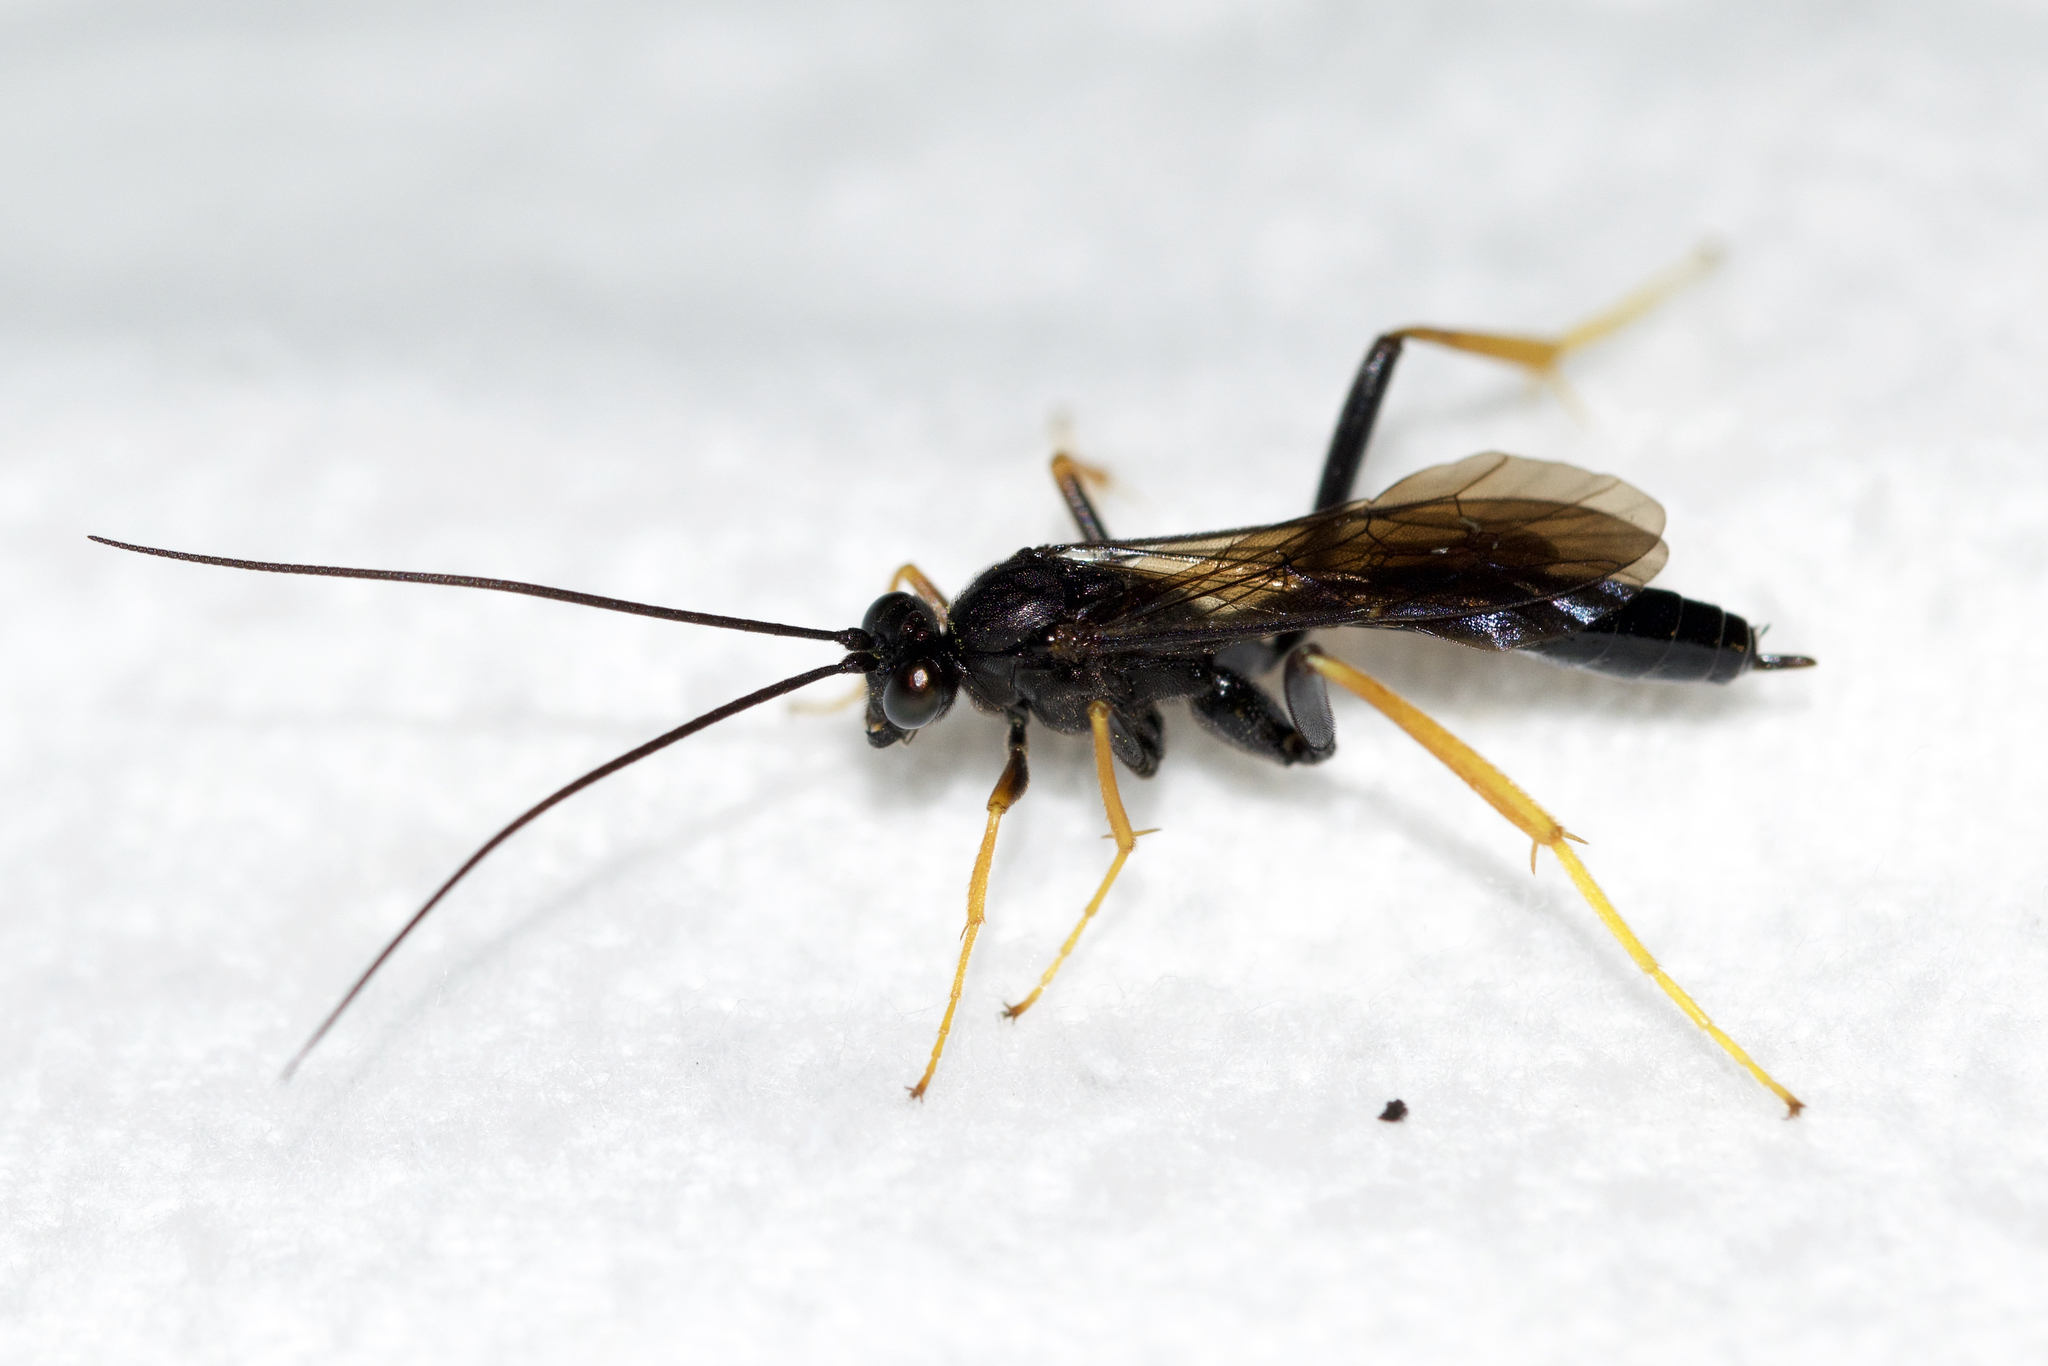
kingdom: Animalia
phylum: Arthropoda
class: Insecta
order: Hymenoptera
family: Ichneumonidae
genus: Exetastes
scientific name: Exetastes suaveolens
